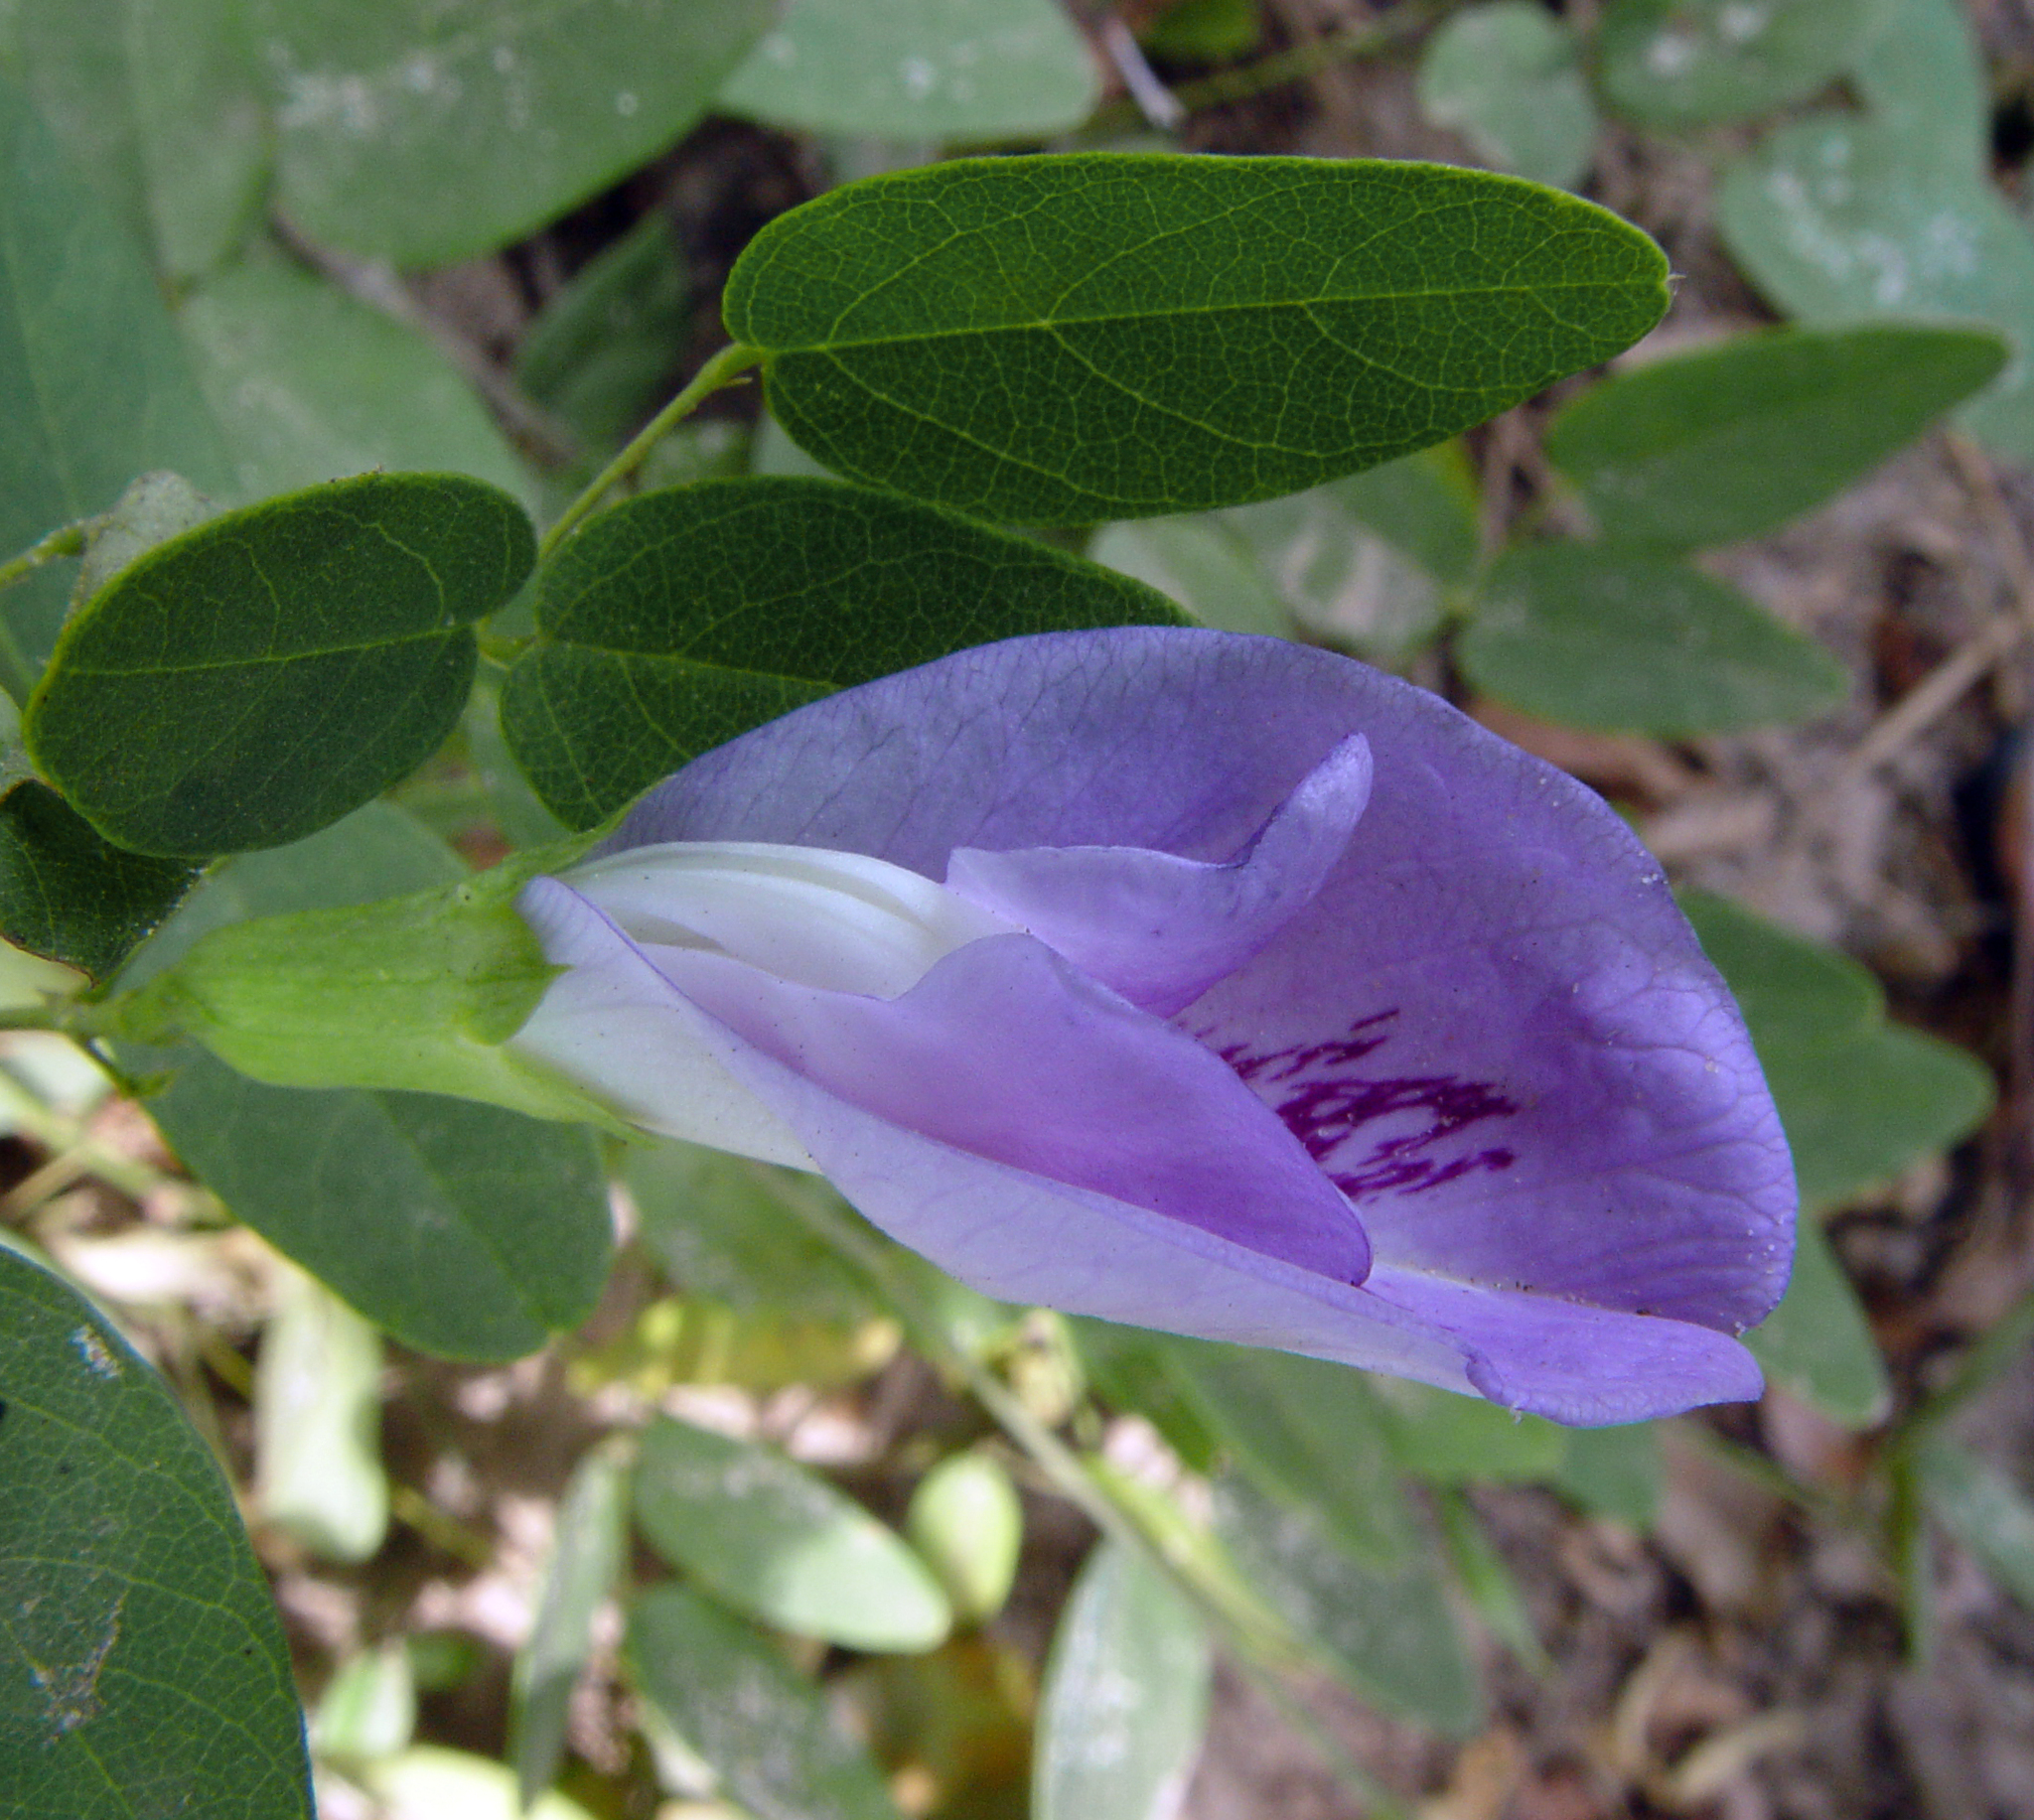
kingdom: Plantae
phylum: Tracheophyta
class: Magnoliopsida
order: Fabales
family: Fabaceae
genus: Clitoria
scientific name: Clitoria mariana
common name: Butterfly-pea
